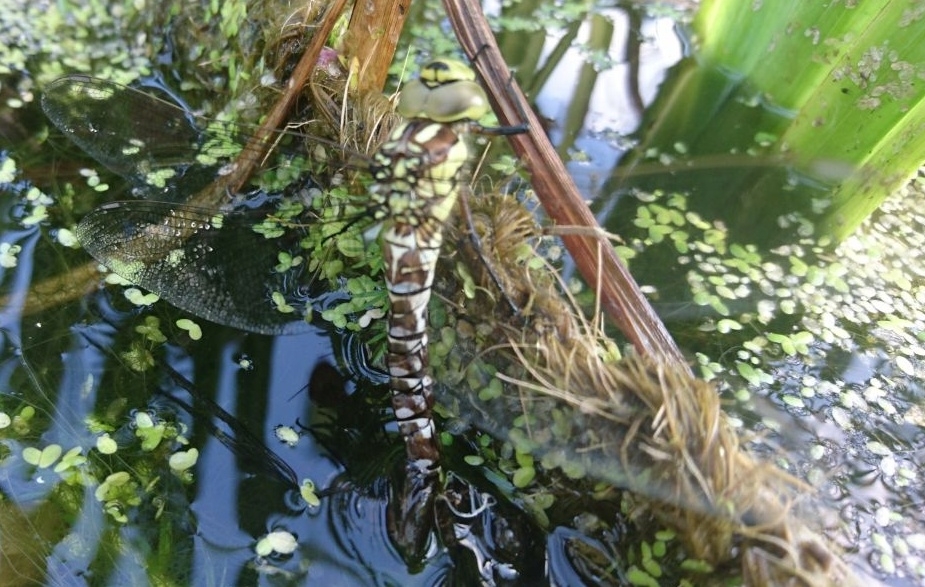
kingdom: Animalia
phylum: Arthropoda
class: Insecta
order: Odonata
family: Aeshnidae
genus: Aeshna
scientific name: Aeshna cyanea
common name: Southern hawker
